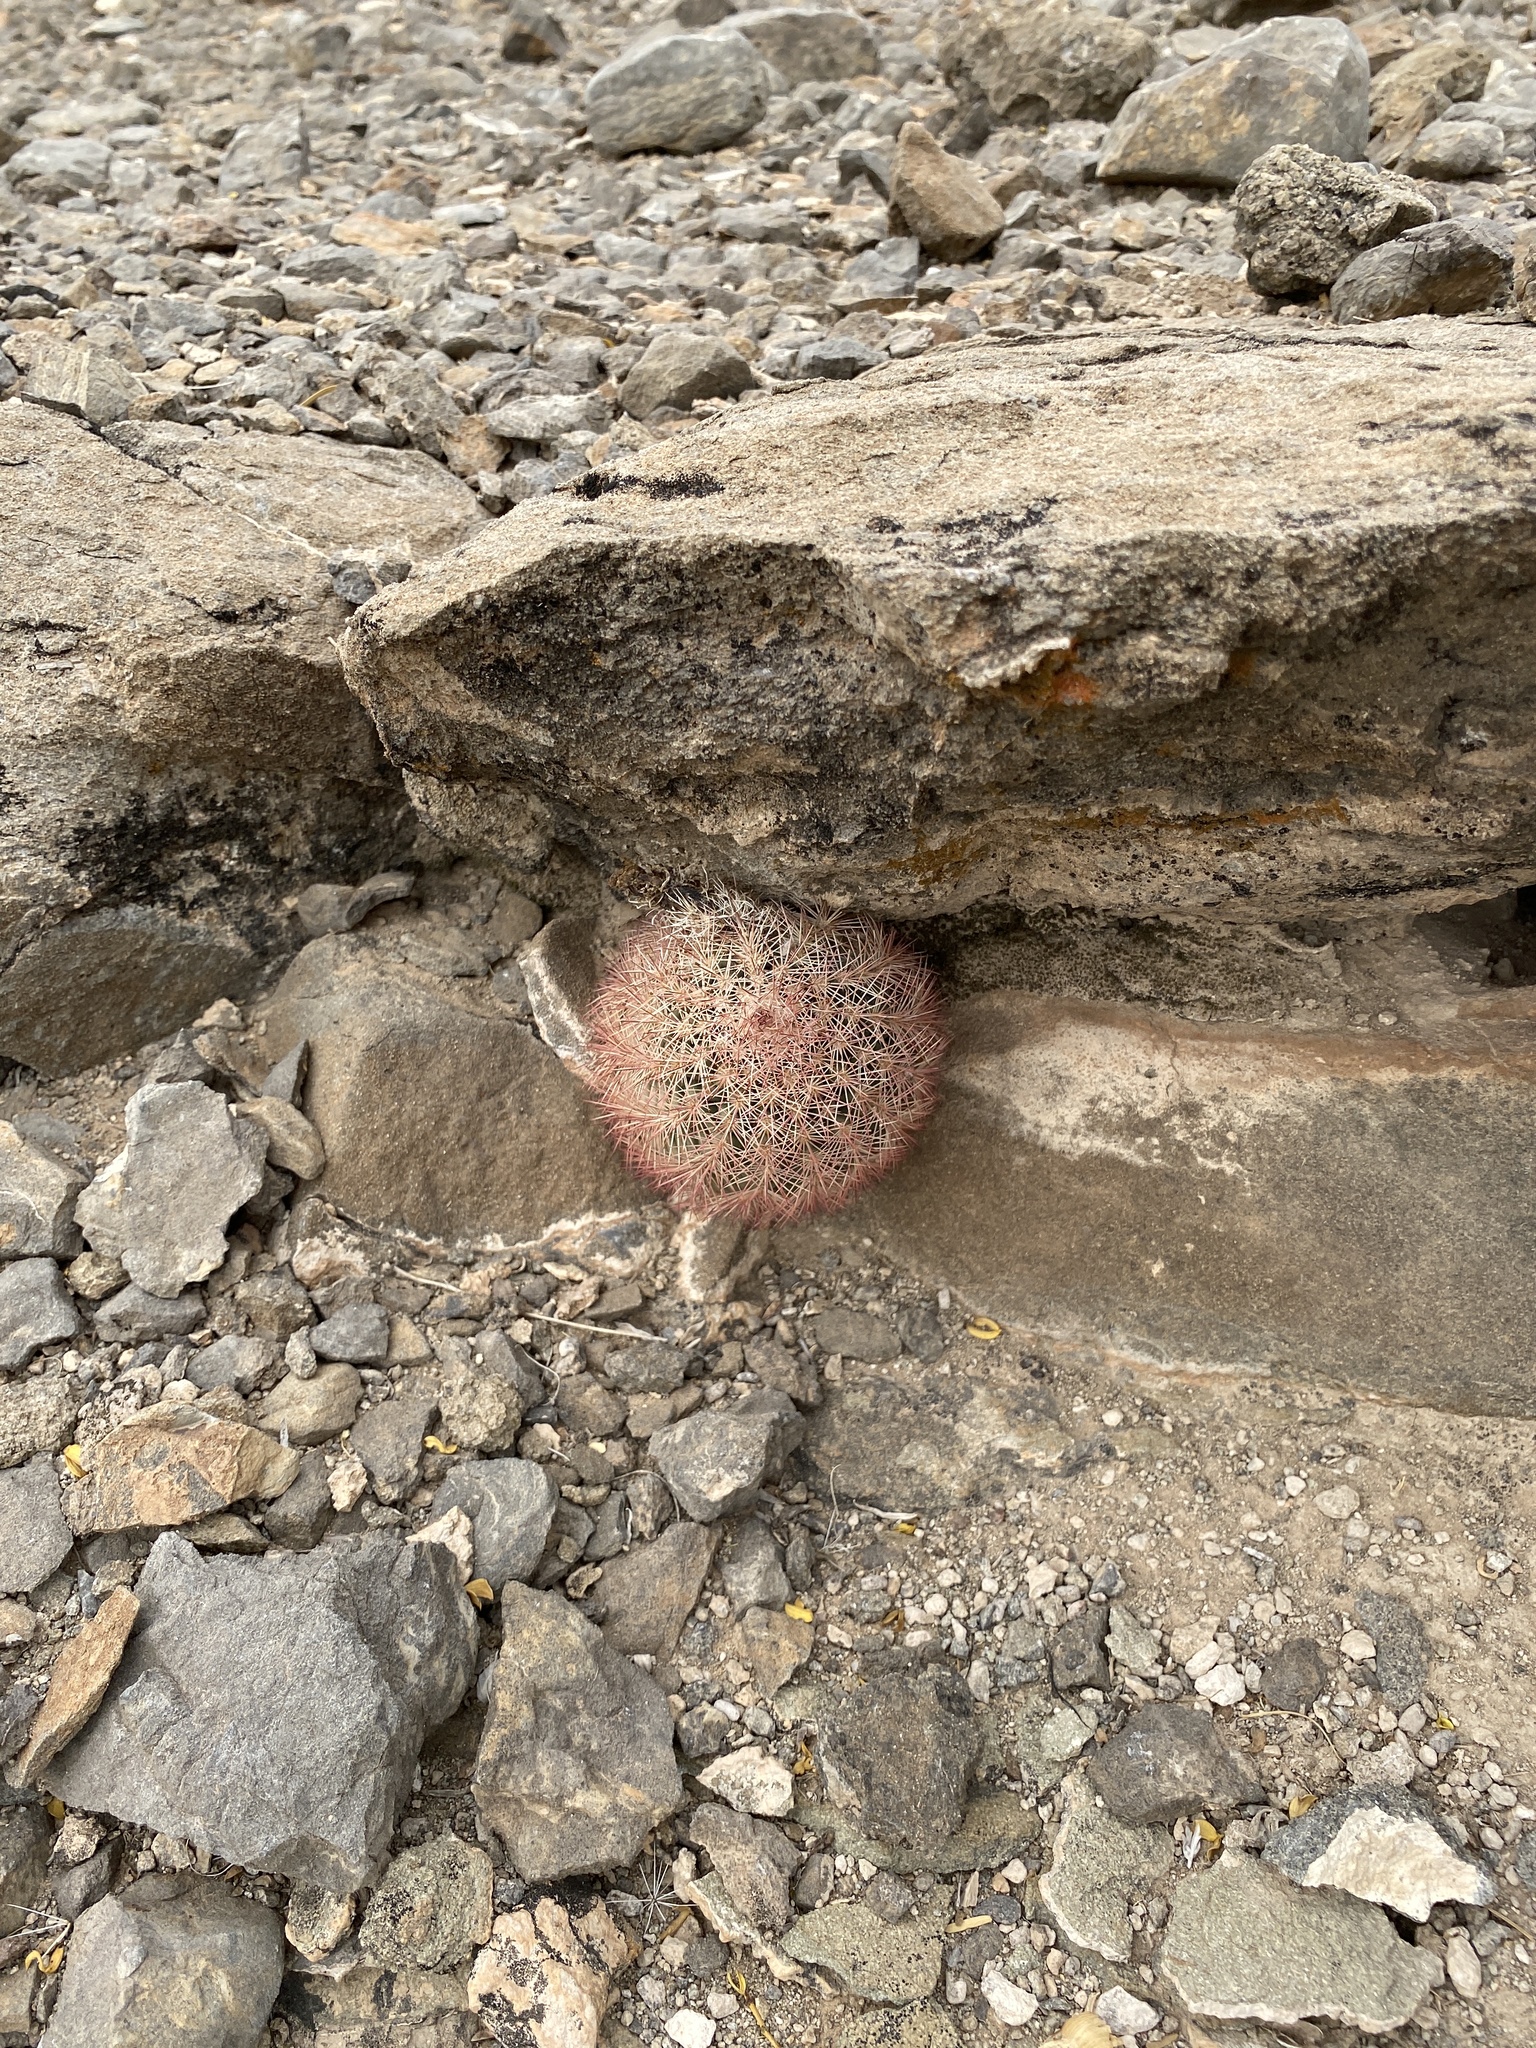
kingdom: Plantae
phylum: Tracheophyta
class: Magnoliopsida
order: Caryophyllales
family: Cactaceae
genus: Echinocereus
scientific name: Echinocereus dasyacanthus
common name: Spiny hedgehog cactus
